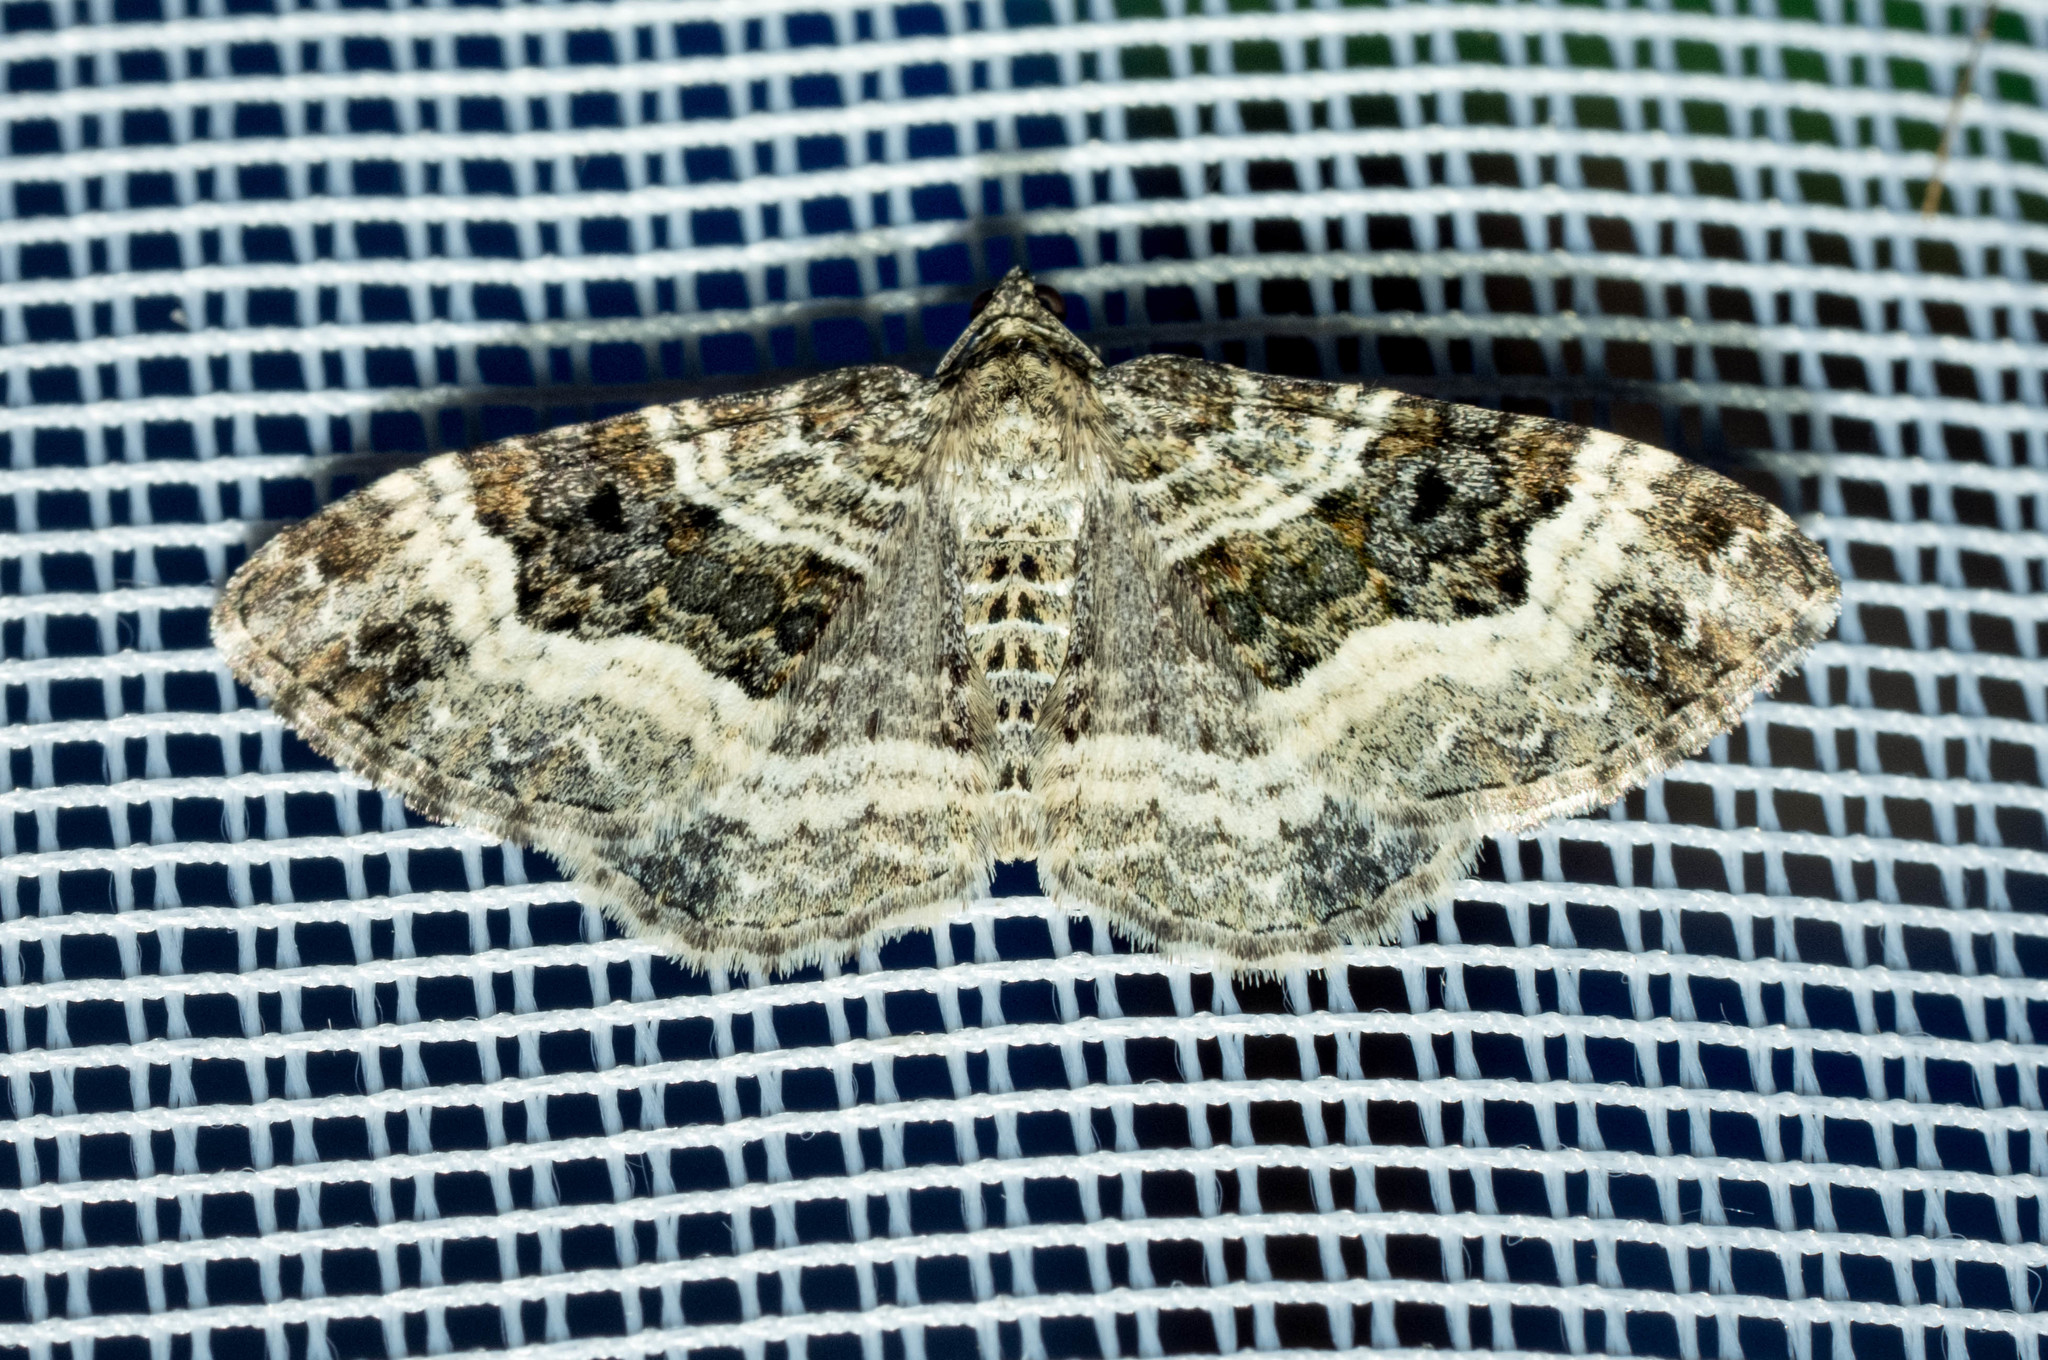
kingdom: Animalia
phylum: Arthropoda
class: Insecta
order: Lepidoptera
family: Geometridae
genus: Epirrhoe
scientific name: Epirrhoe alternata
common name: Common carpet
